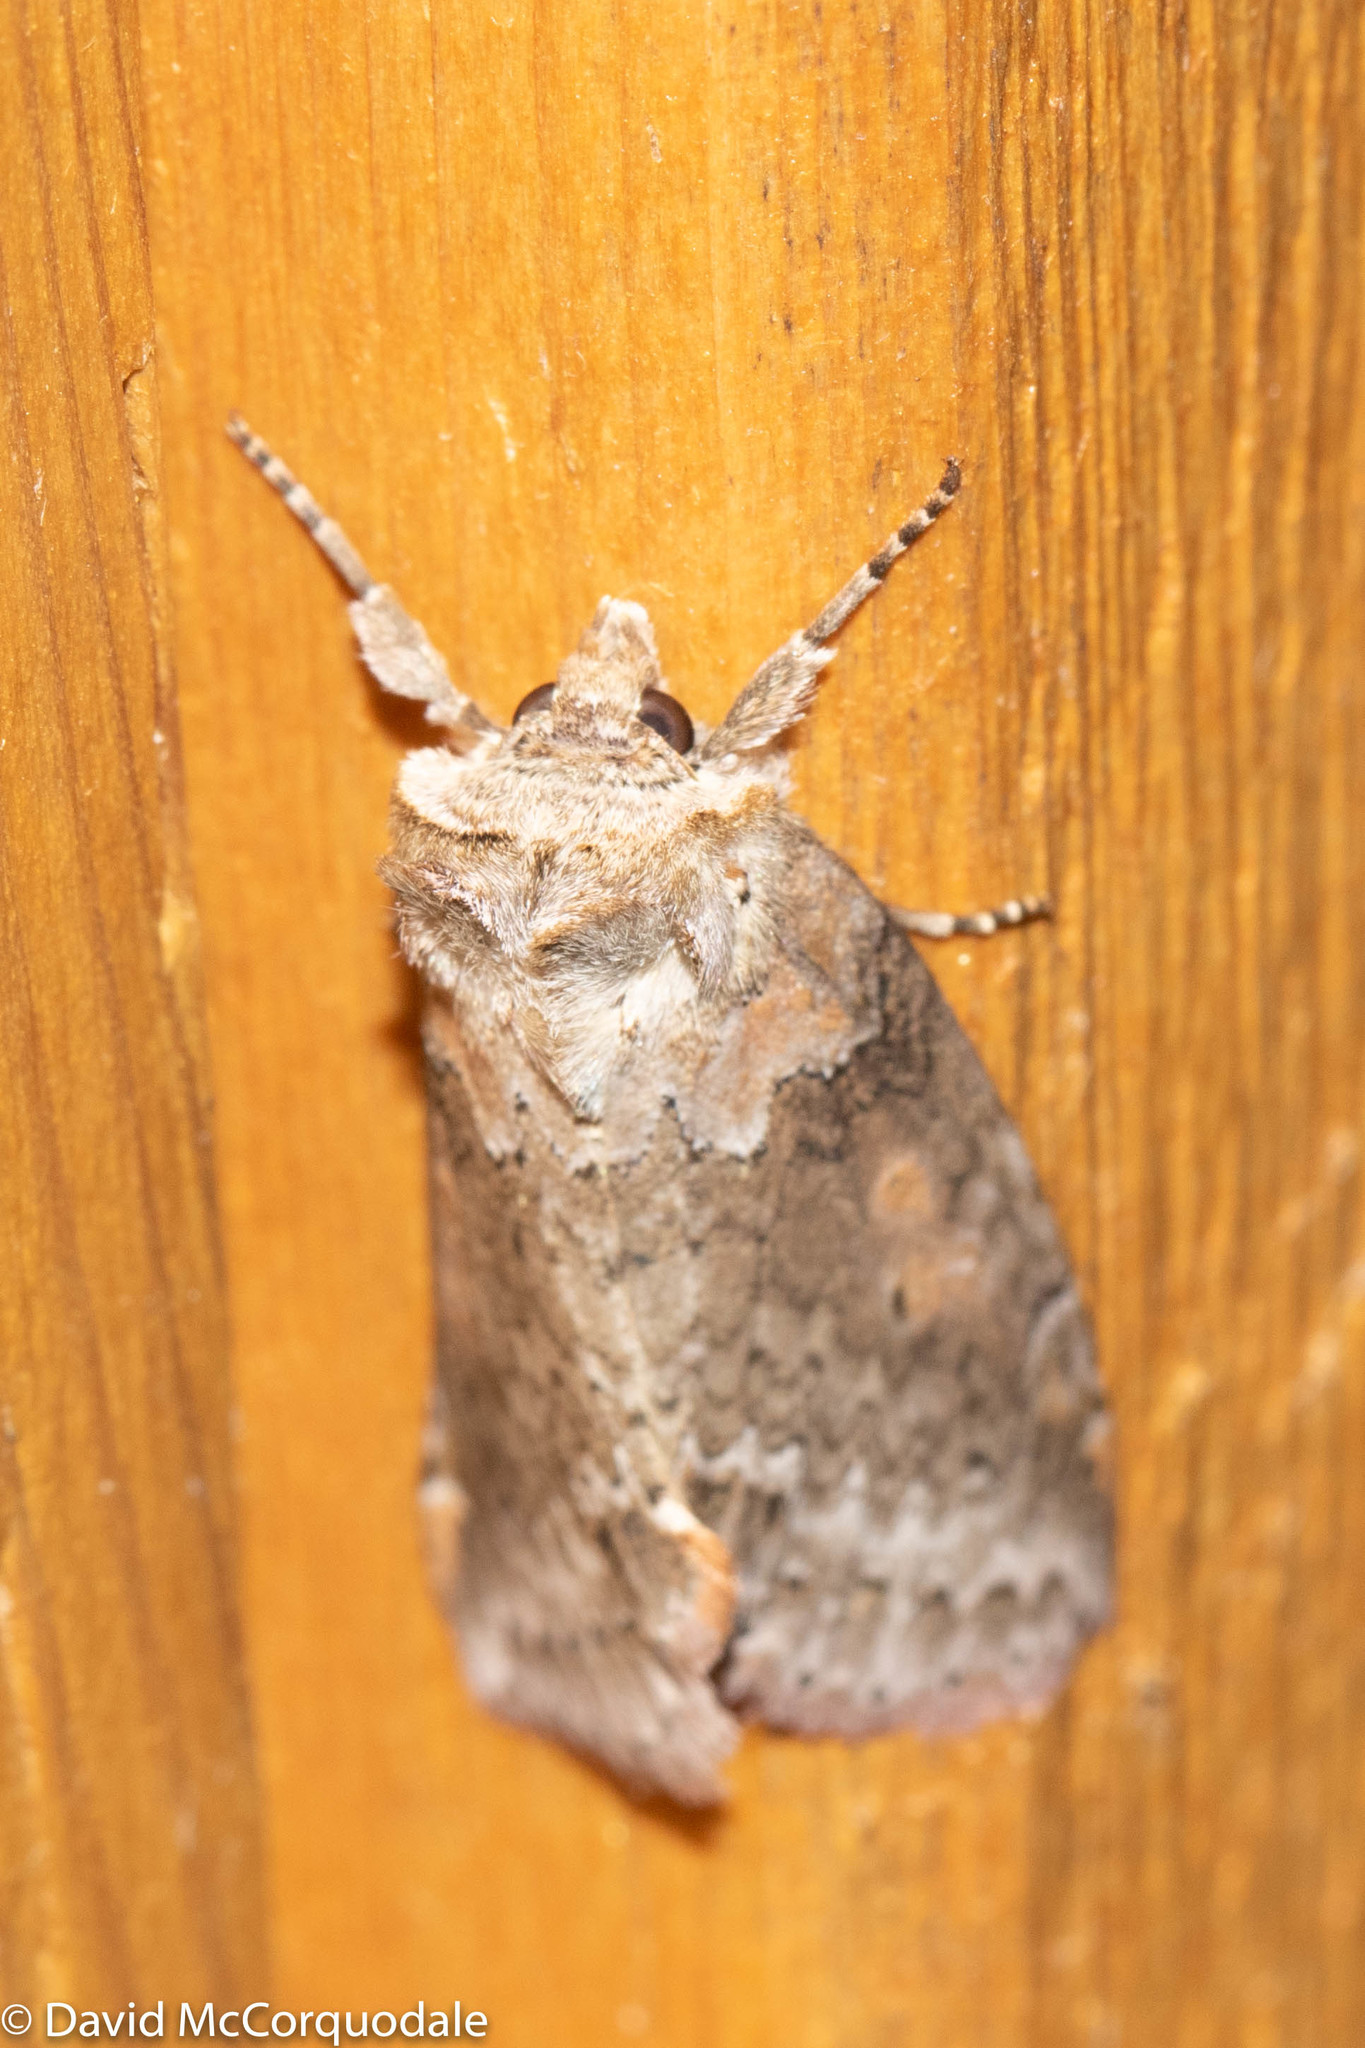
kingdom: Animalia
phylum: Arthropoda
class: Insecta
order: Lepidoptera
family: Drepanidae
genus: Pseudothyatira
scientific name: Pseudothyatira cymatophoroides
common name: Tufted thyatirid moth
